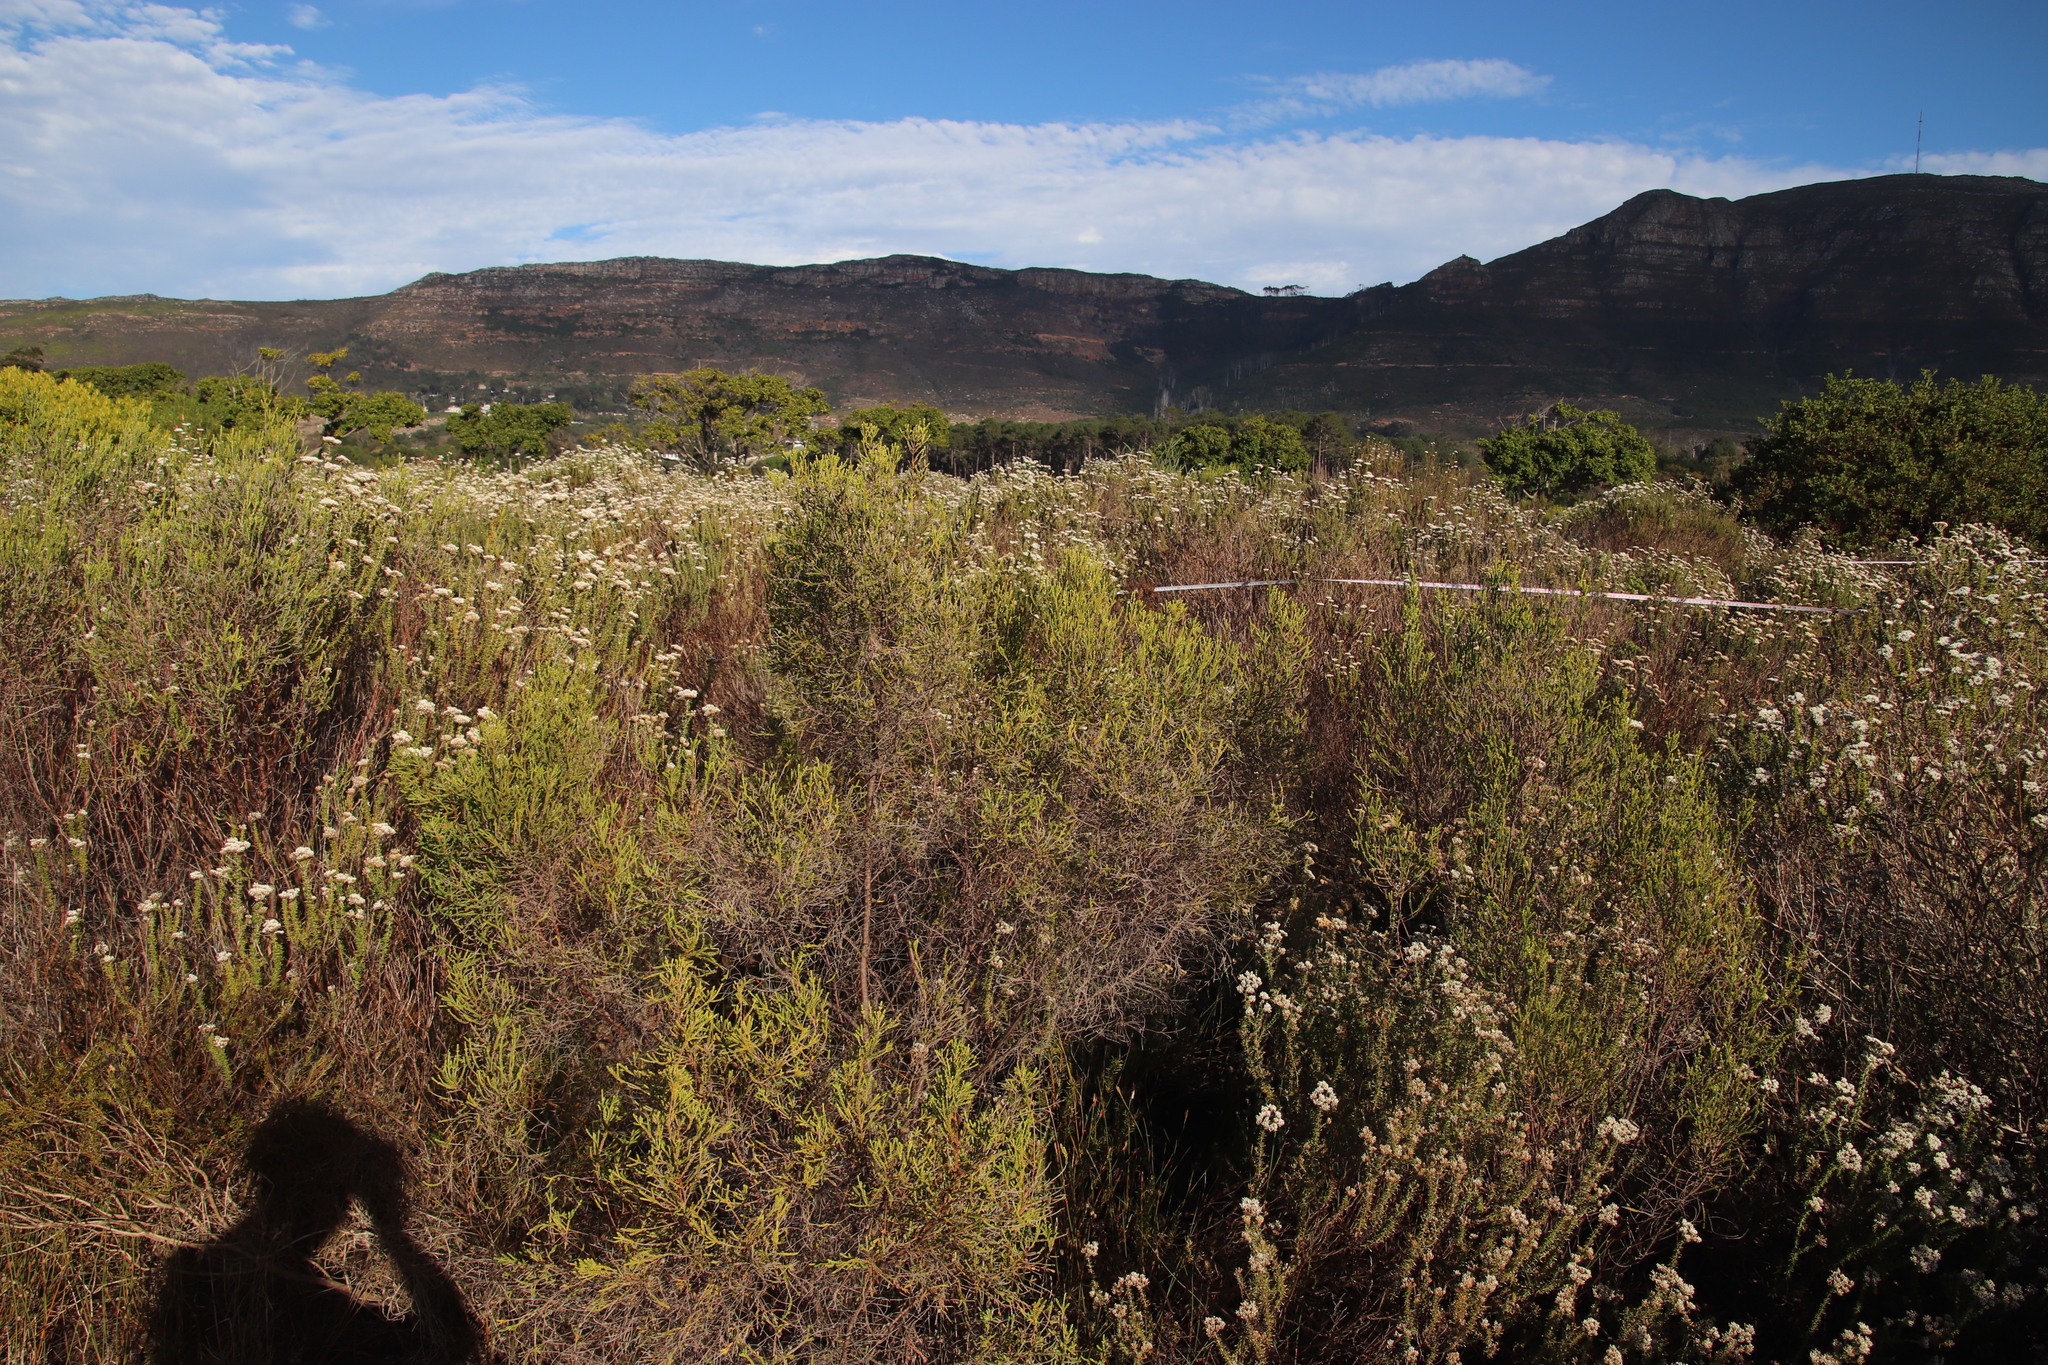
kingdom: Plantae
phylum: Tracheophyta
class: Magnoliopsida
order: Malvales
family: Thymelaeaceae
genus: Passerina
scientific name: Passerina corymbosa
